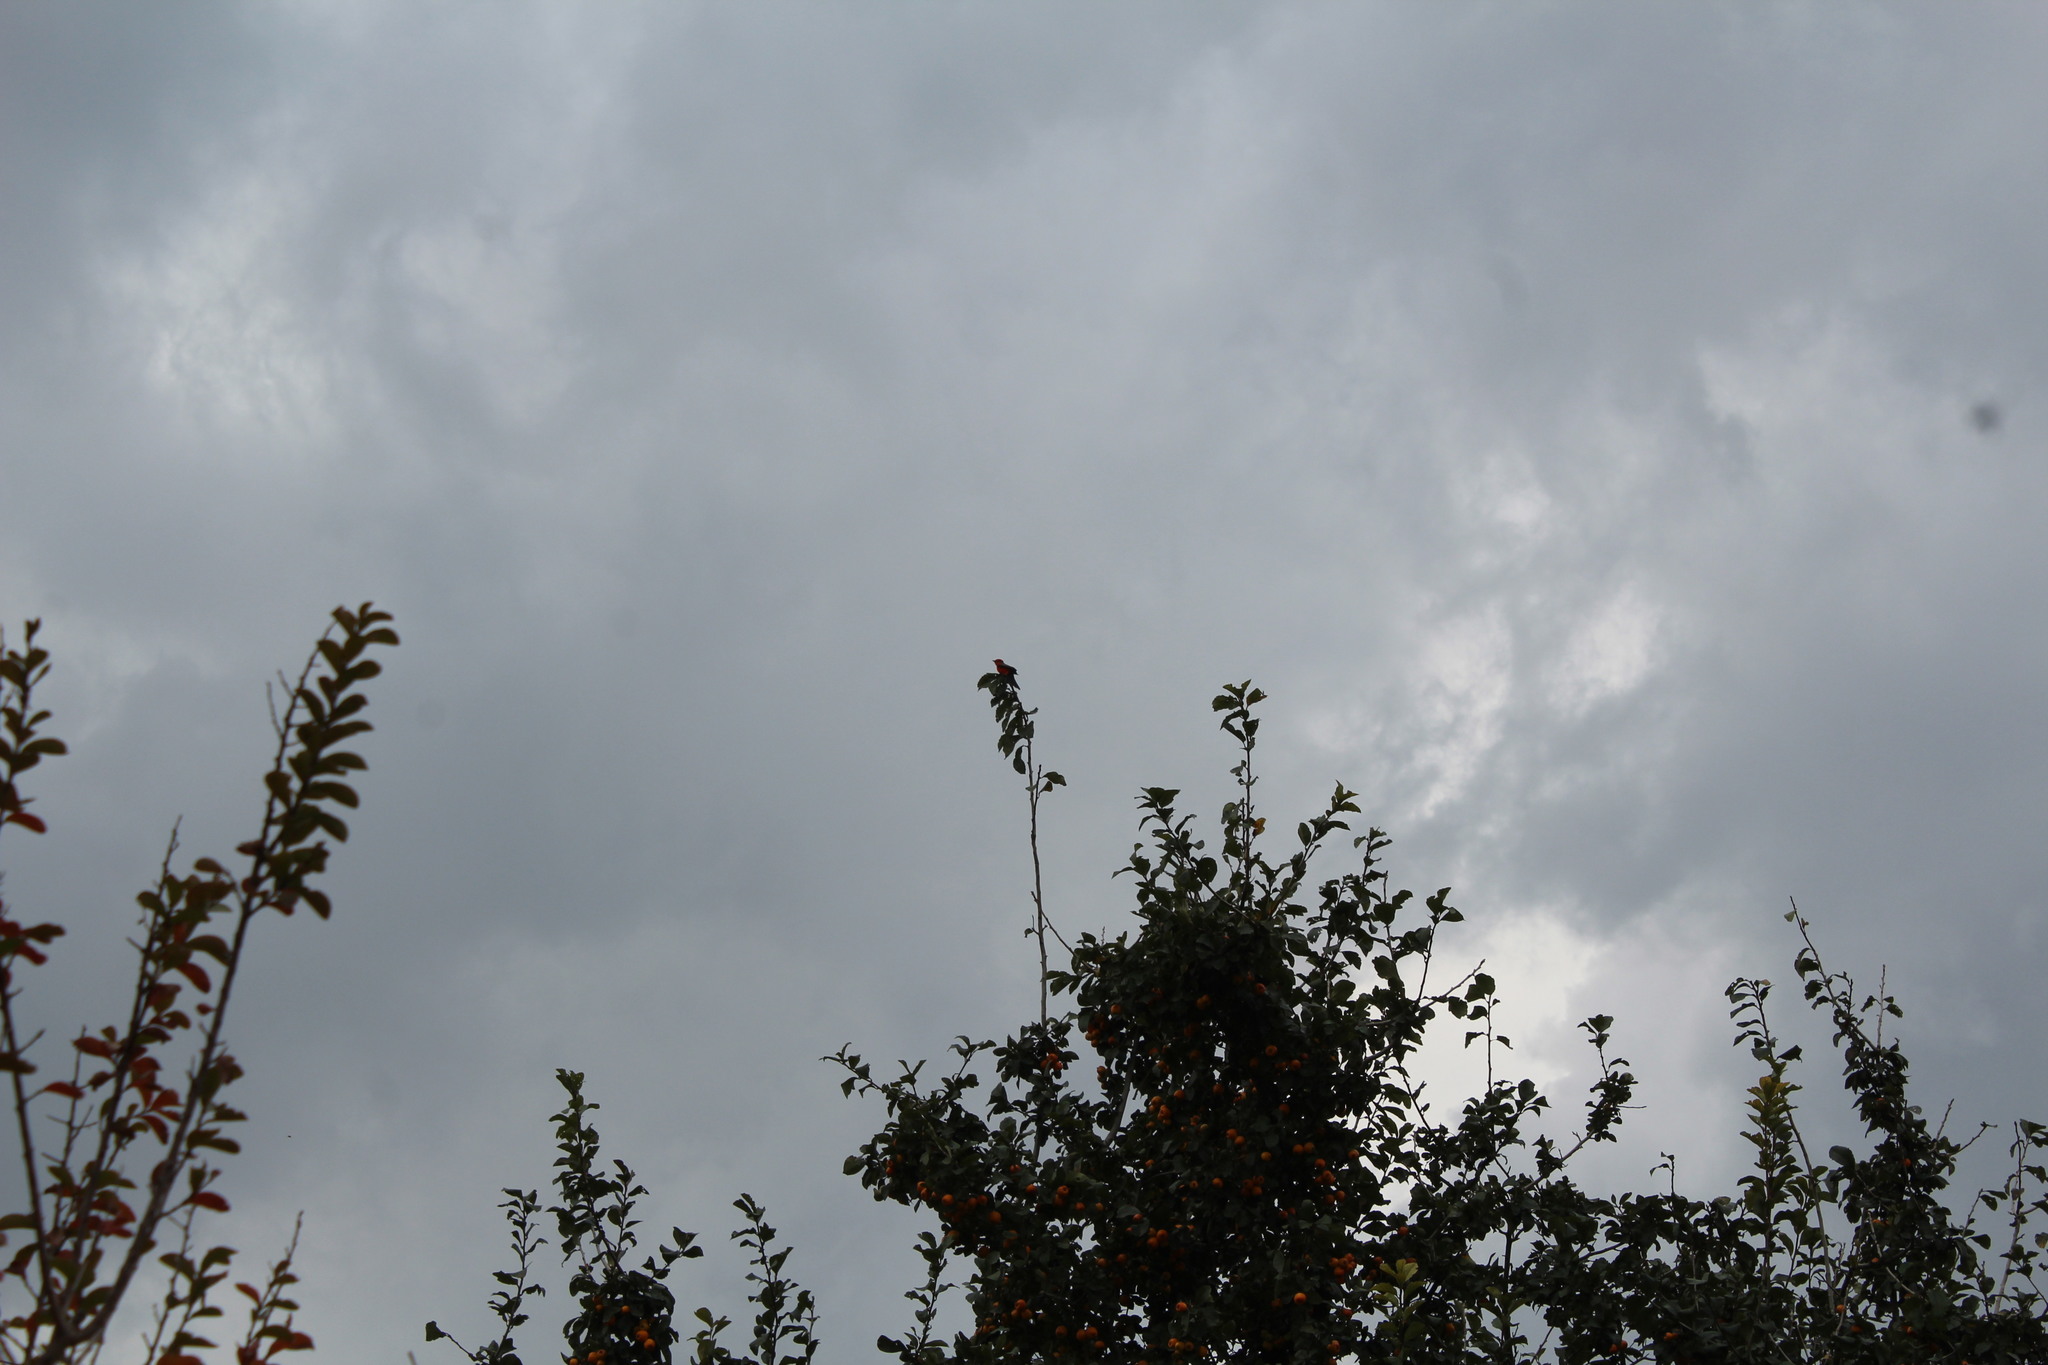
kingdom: Animalia
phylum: Chordata
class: Aves
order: Passeriformes
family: Tyrannidae
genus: Pyrocephalus
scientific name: Pyrocephalus rubinus
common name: Vermilion flycatcher
